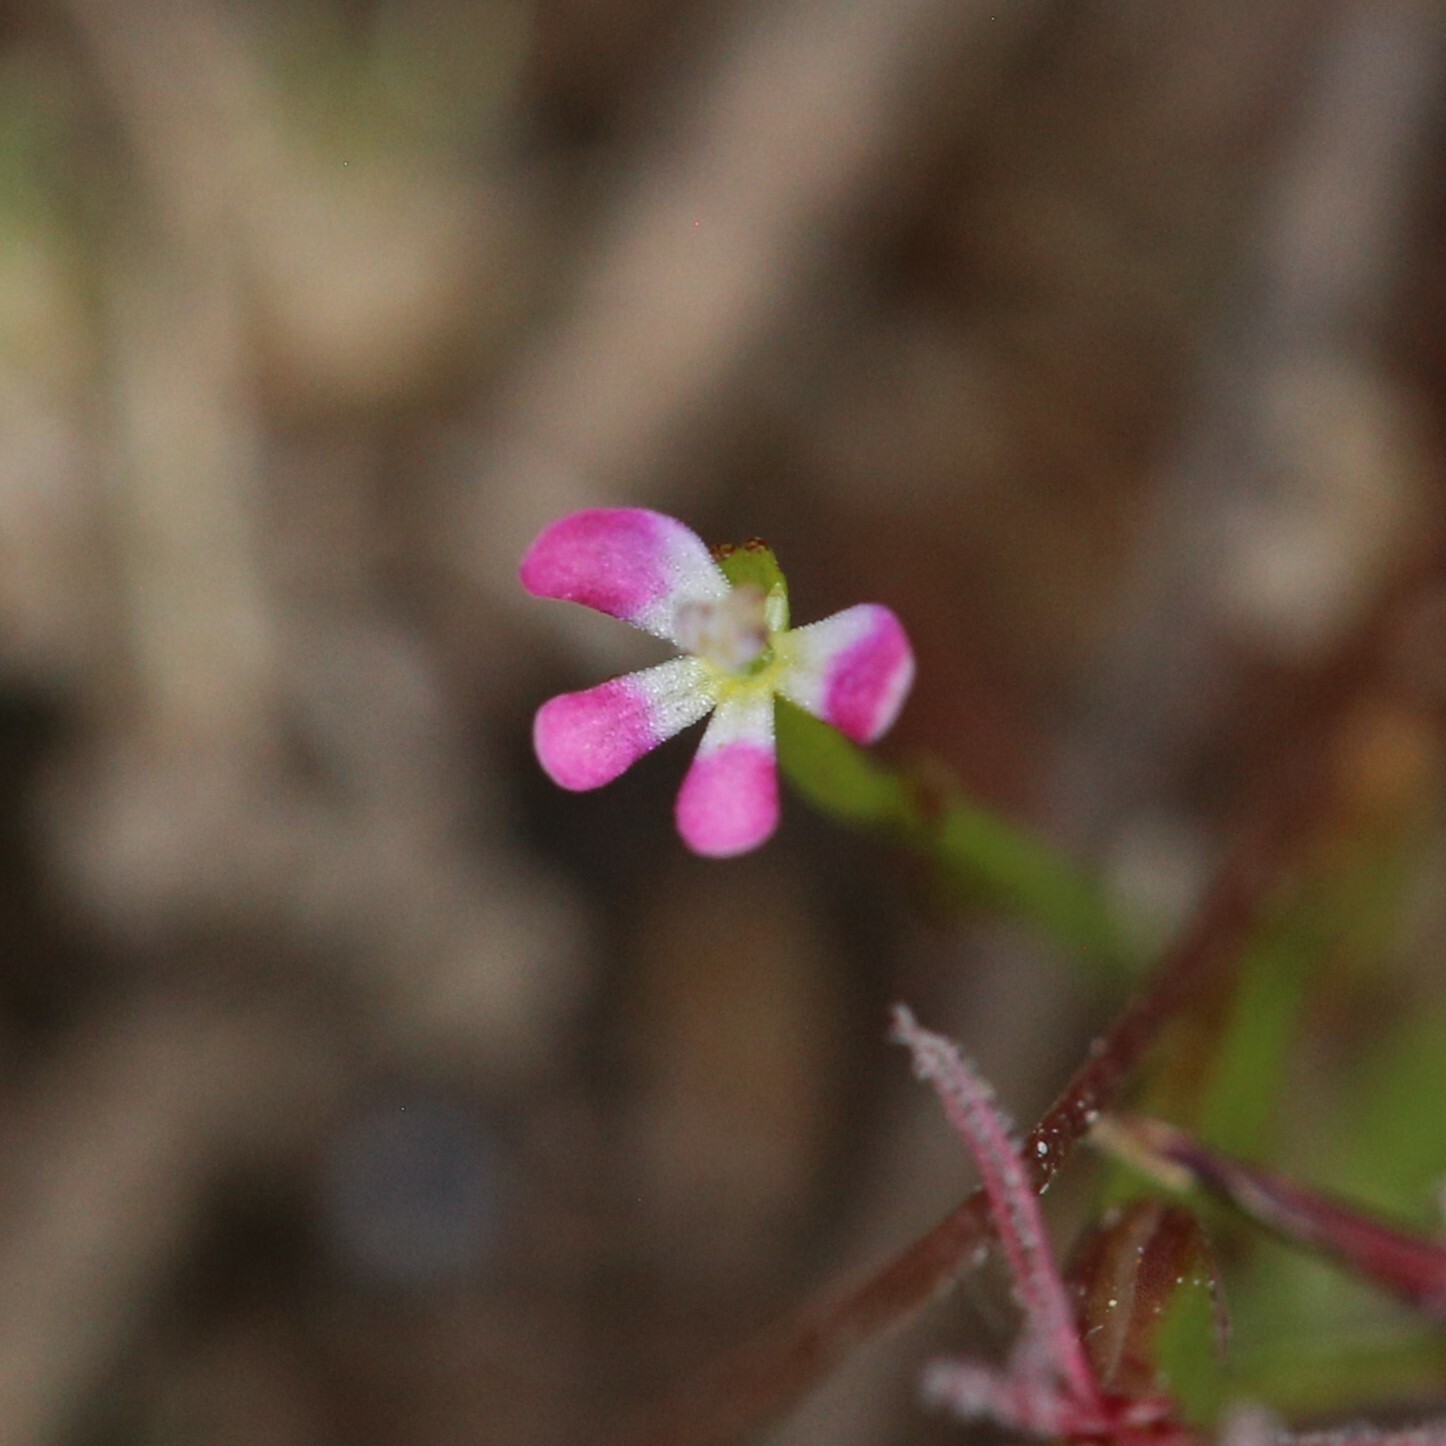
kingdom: Plantae
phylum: Tracheophyta
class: Magnoliopsida
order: Asterales
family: Stylidiaceae
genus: Stylidium
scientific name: Stylidium despectum
